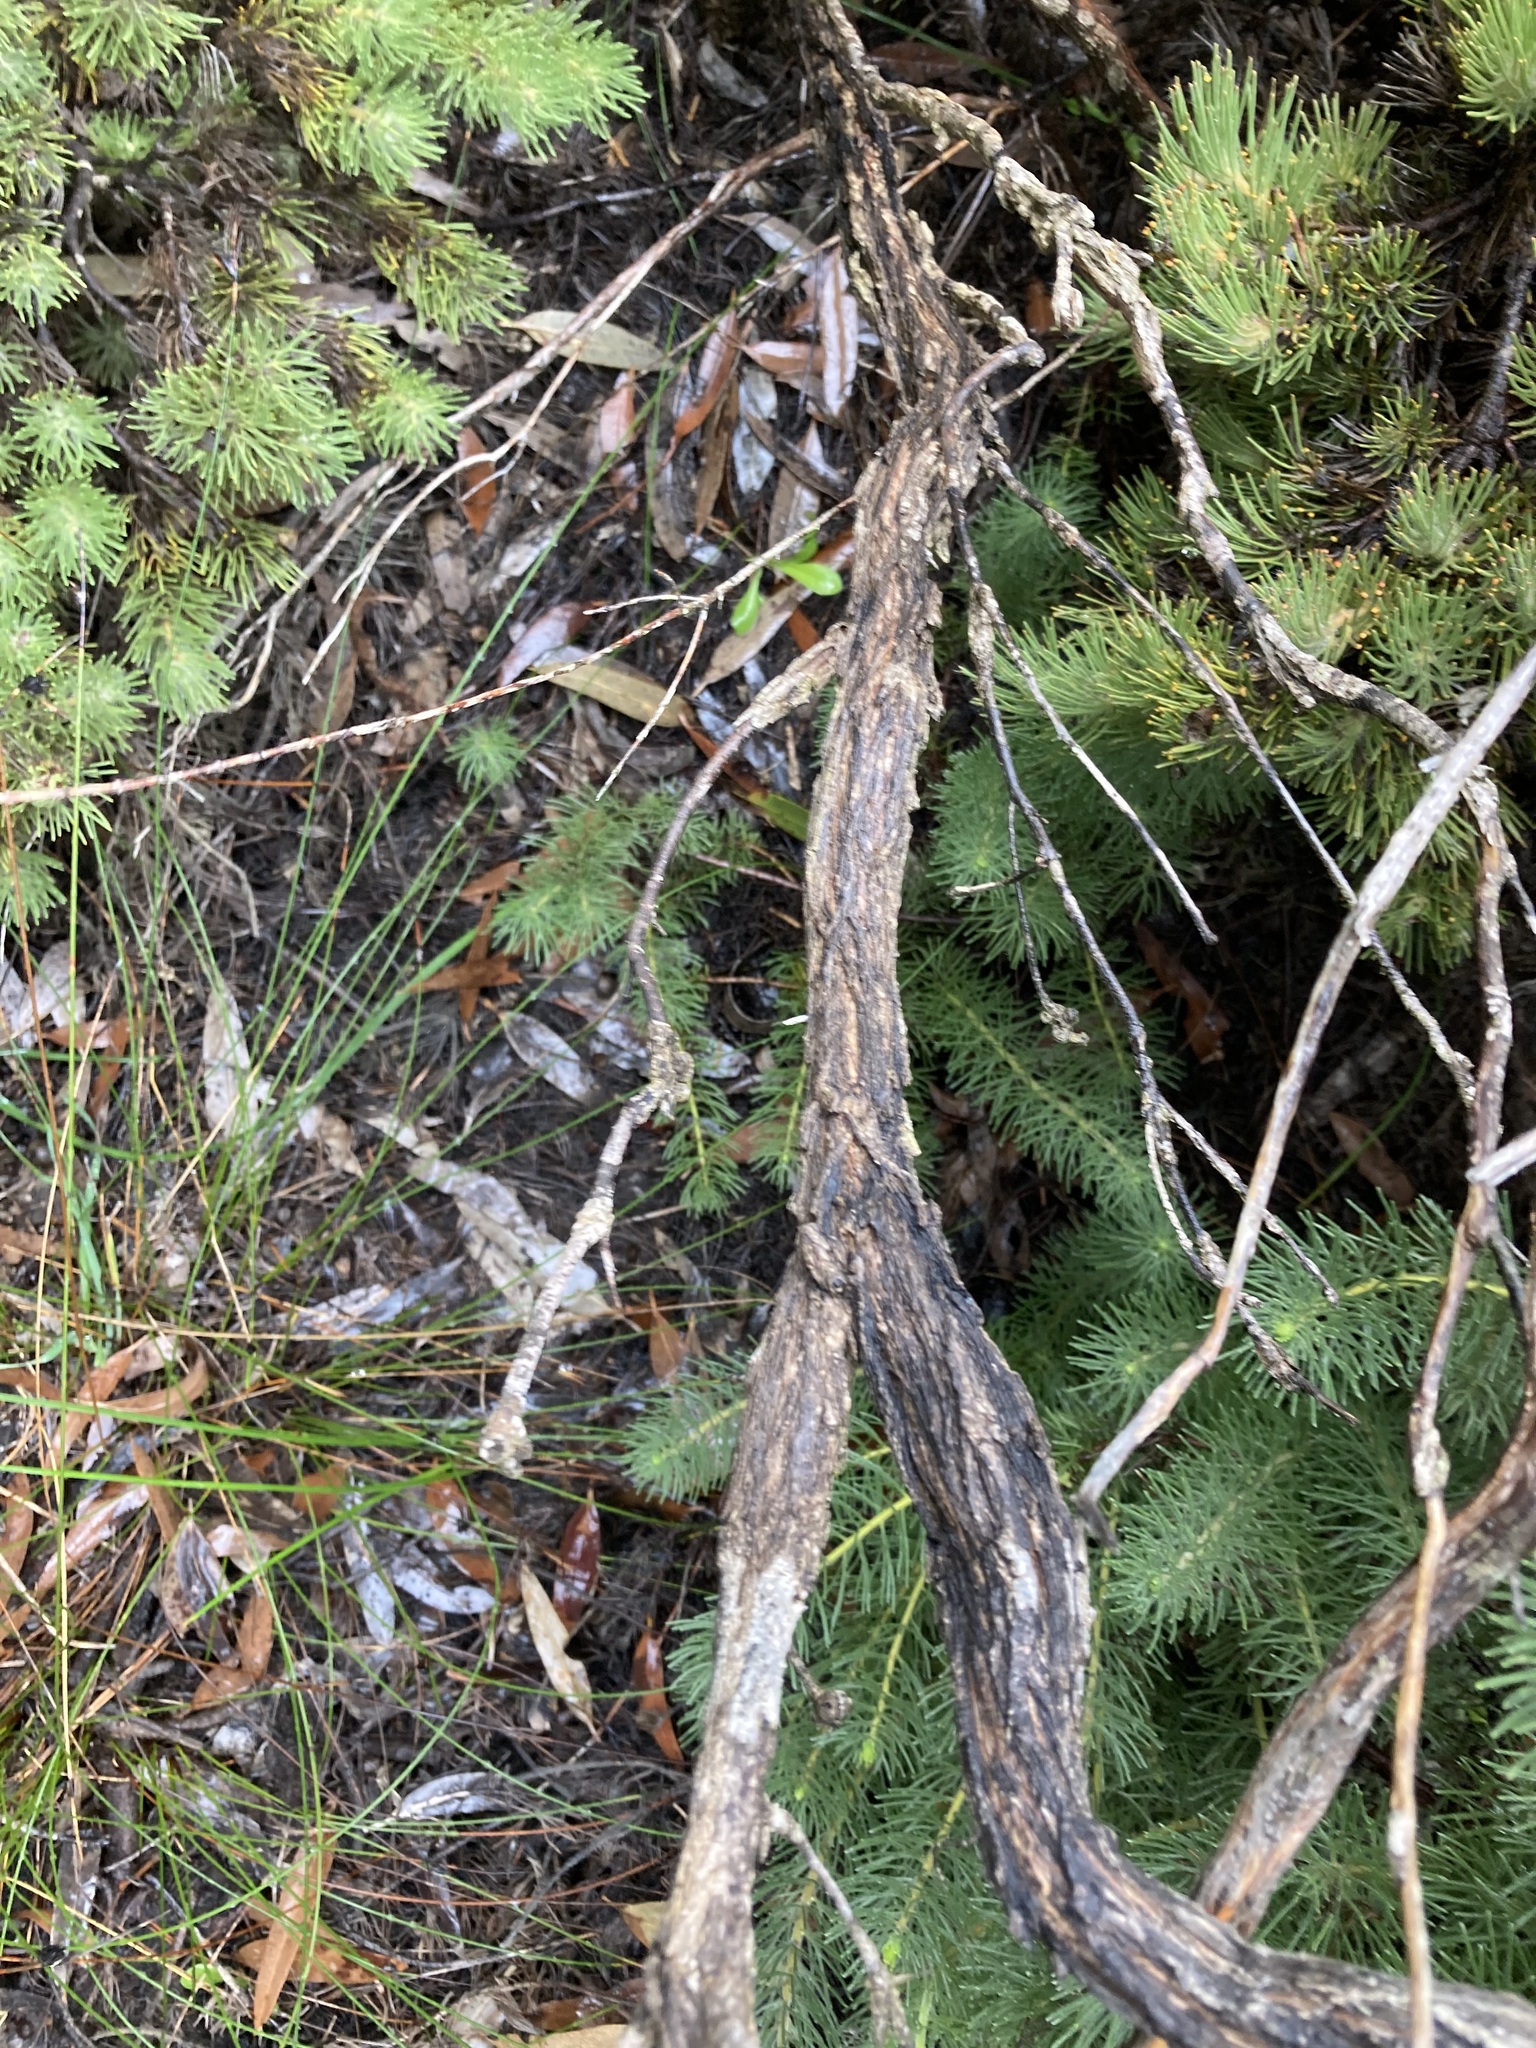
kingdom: Plantae
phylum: Tracheophyta
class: Magnoliopsida
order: Myrtales
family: Myrtaceae
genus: Hypocalymma
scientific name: Hypocalymma xanthopetalum
